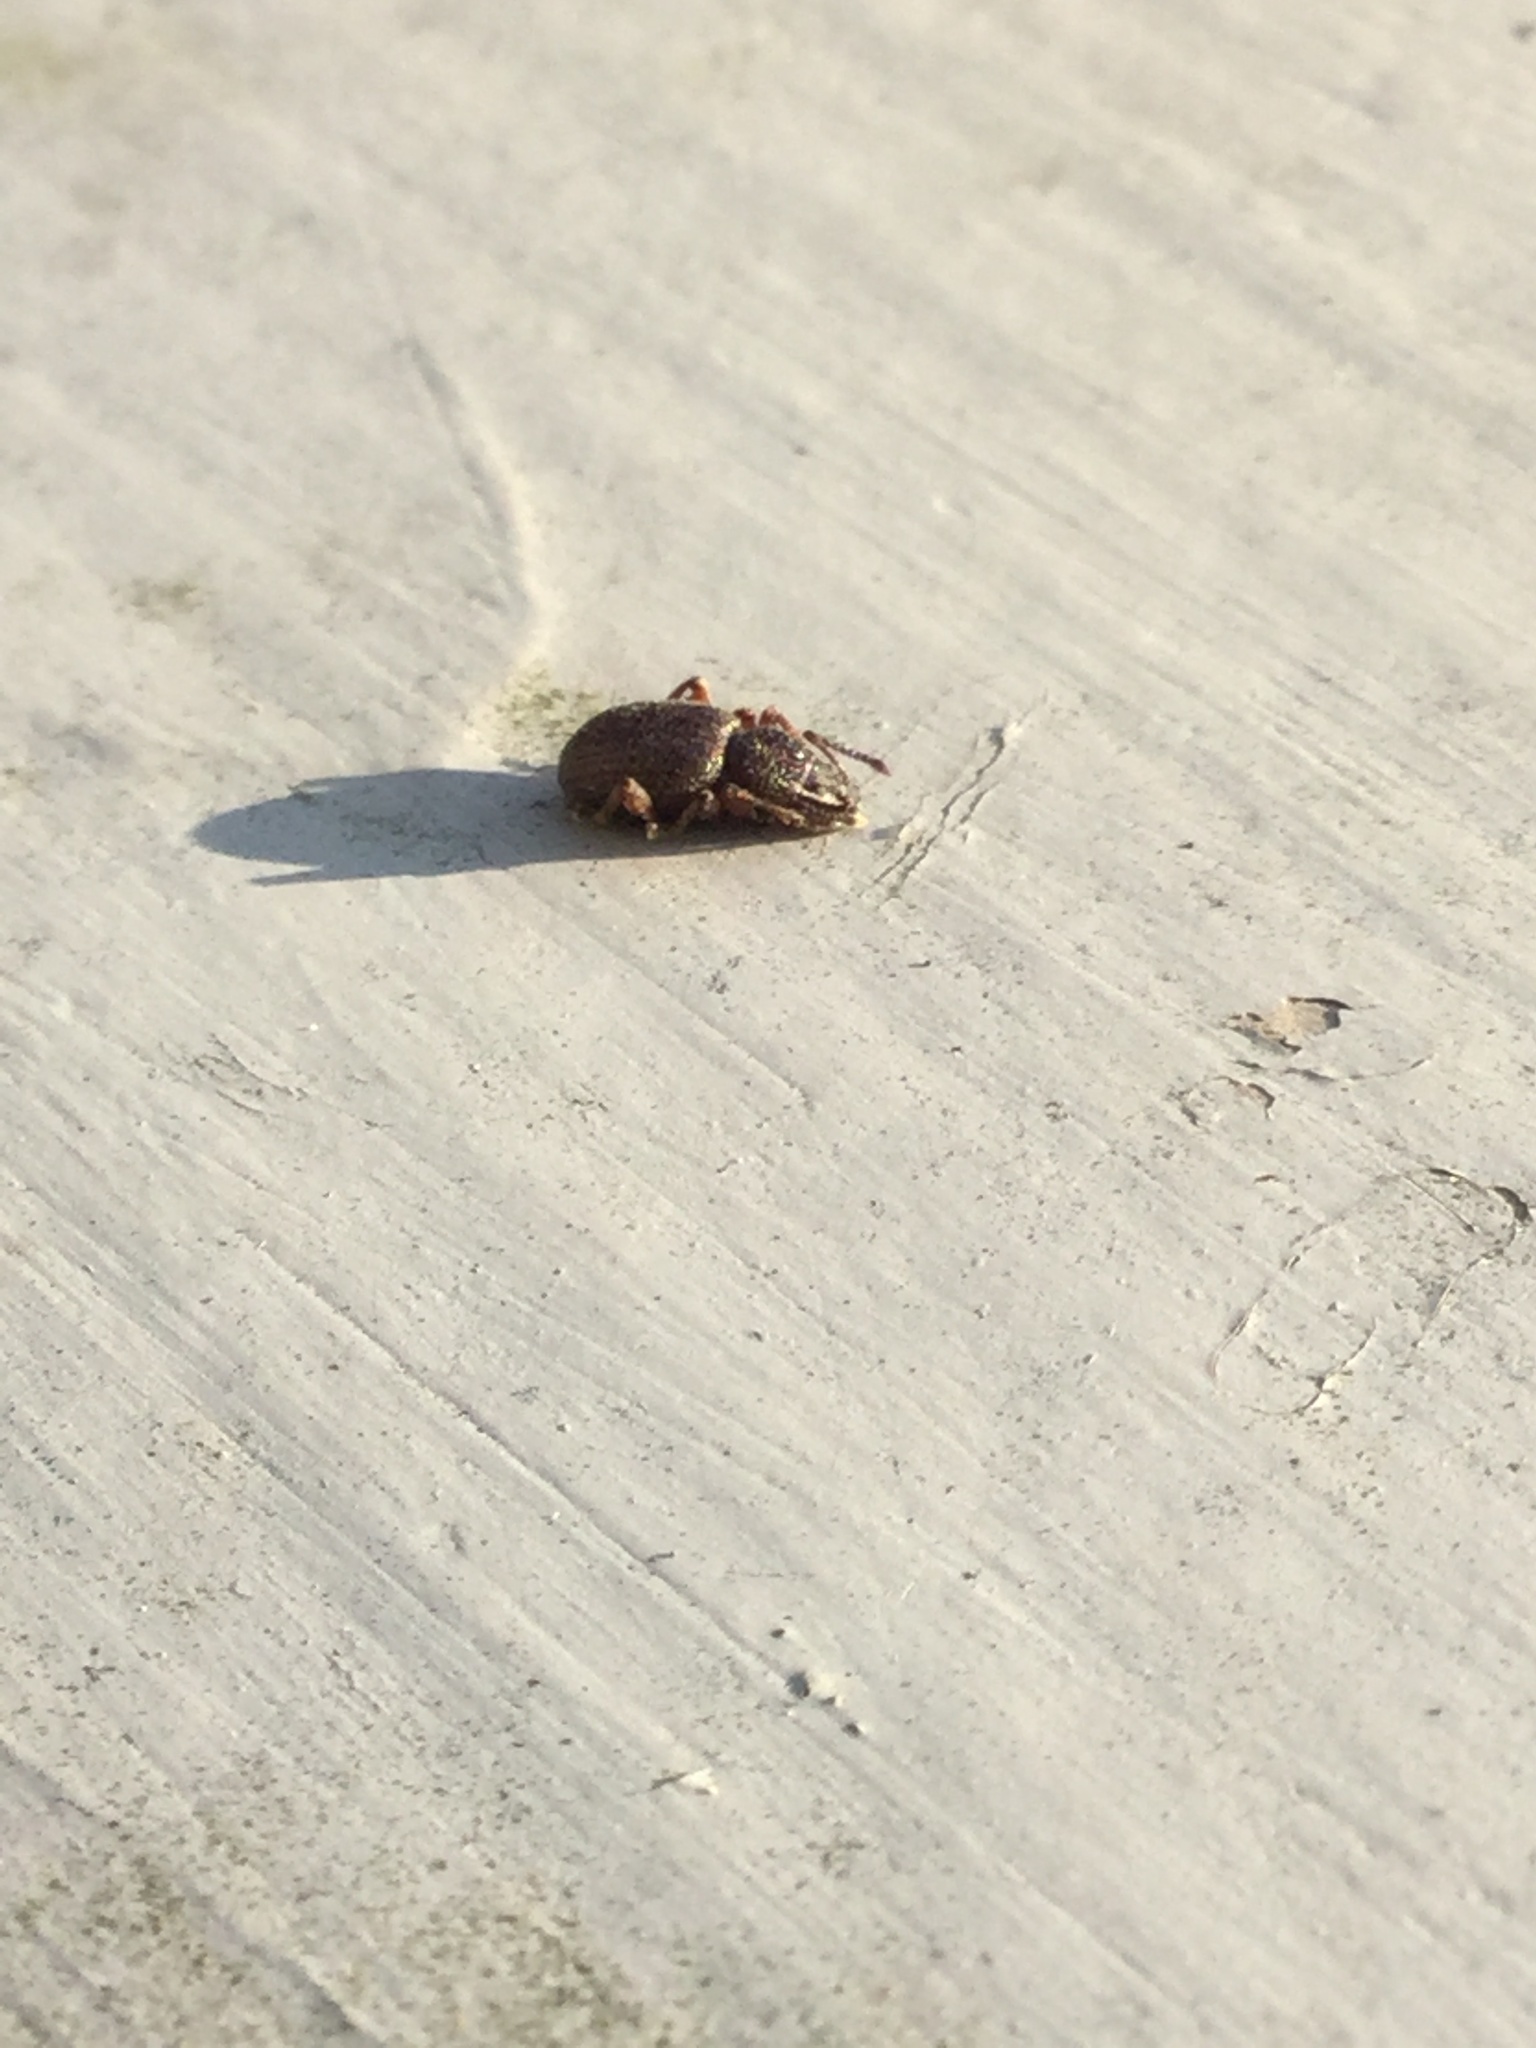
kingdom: Animalia
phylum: Arthropoda
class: Insecta
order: Coleoptera
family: Curculionidae
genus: Otiorhynchus
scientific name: Otiorhynchus ovatus
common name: Strawberry root weevil
